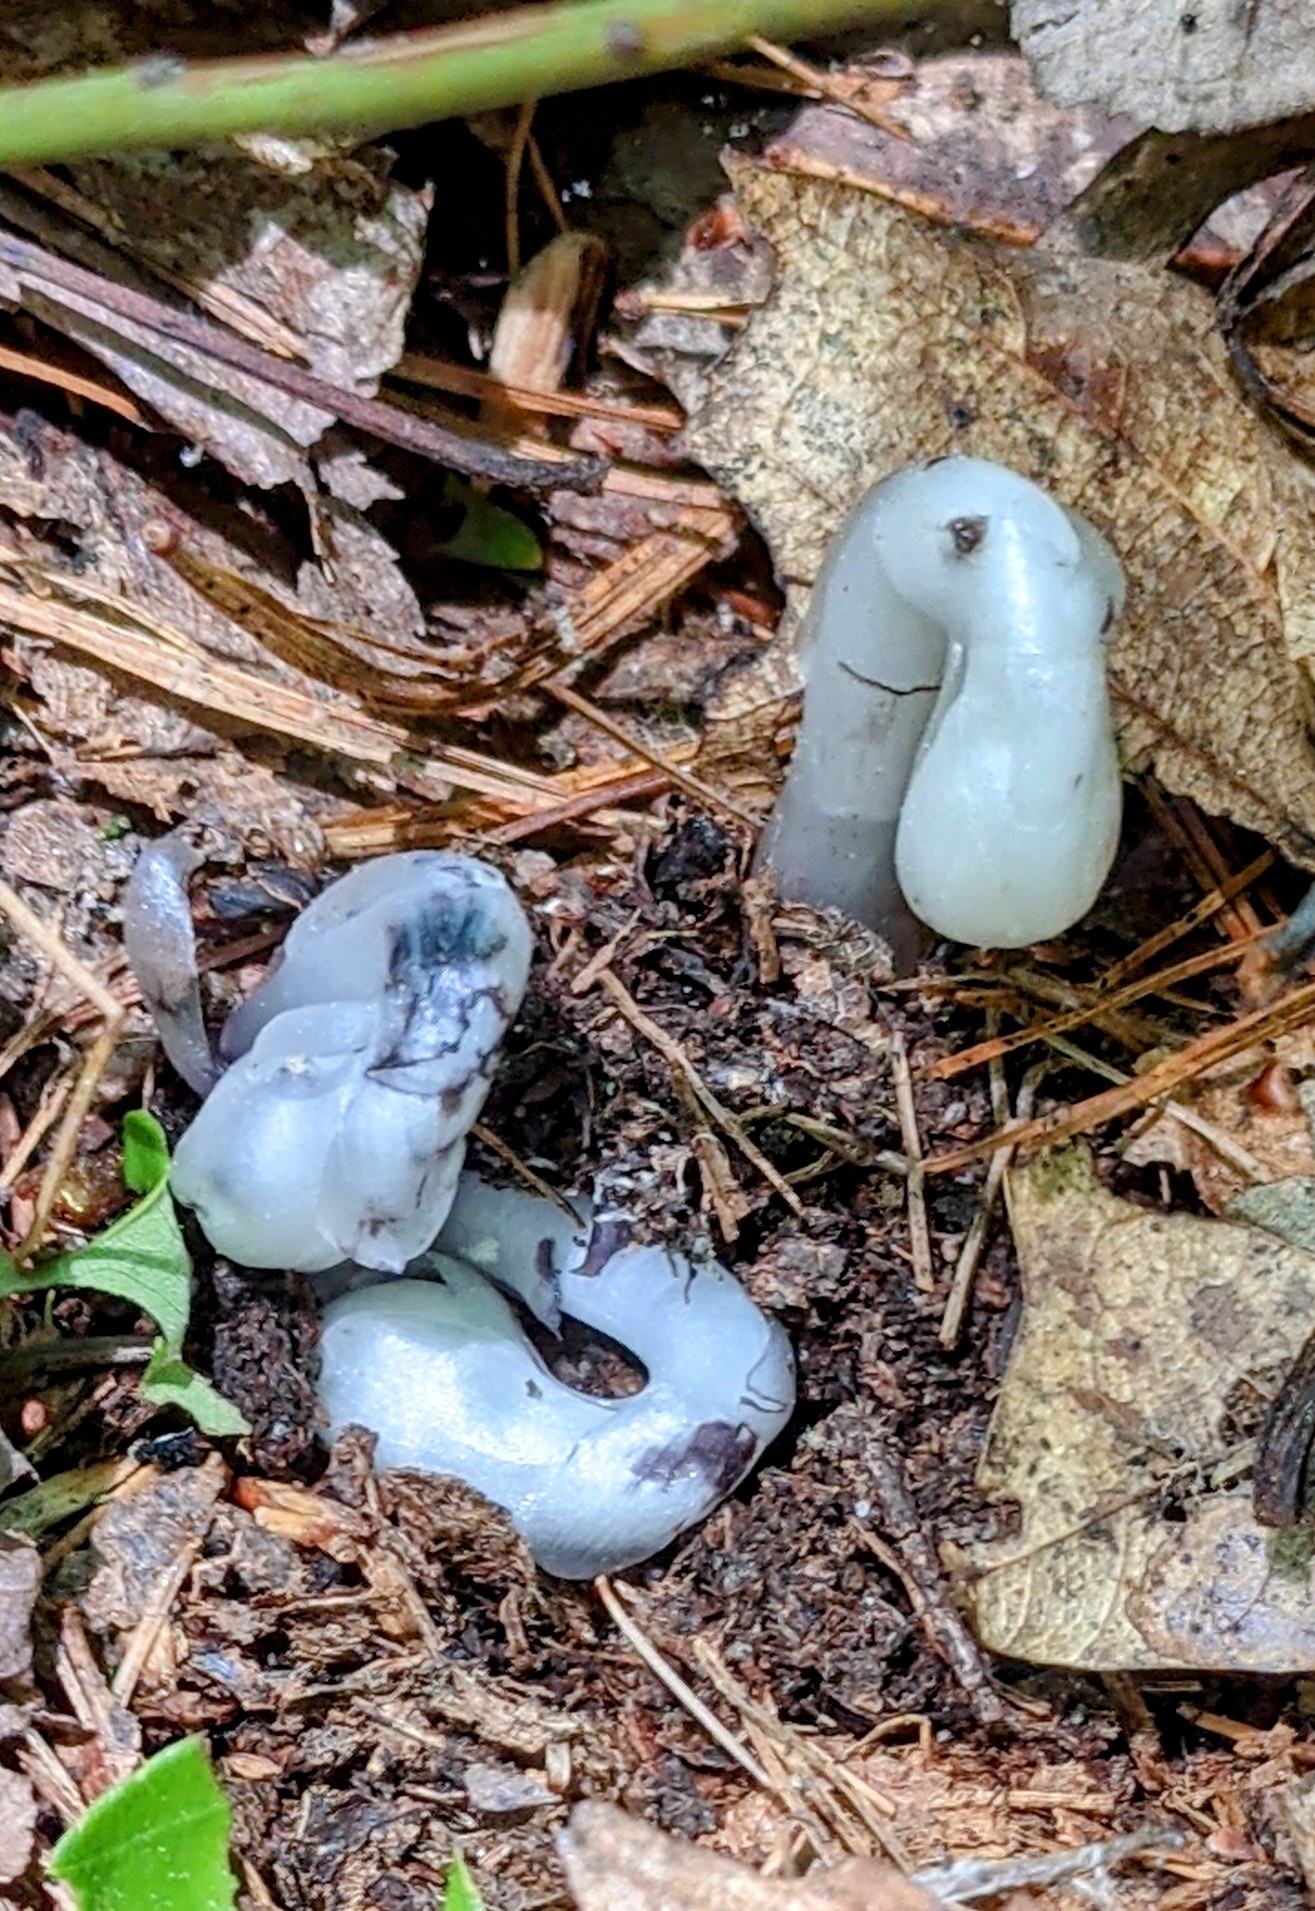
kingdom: Plantae
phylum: Tracheophyta
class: Magnoliopsida
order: Ericales
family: Ericaceae
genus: Monotropa
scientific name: Monotropa uniflora
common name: Convulsion root
